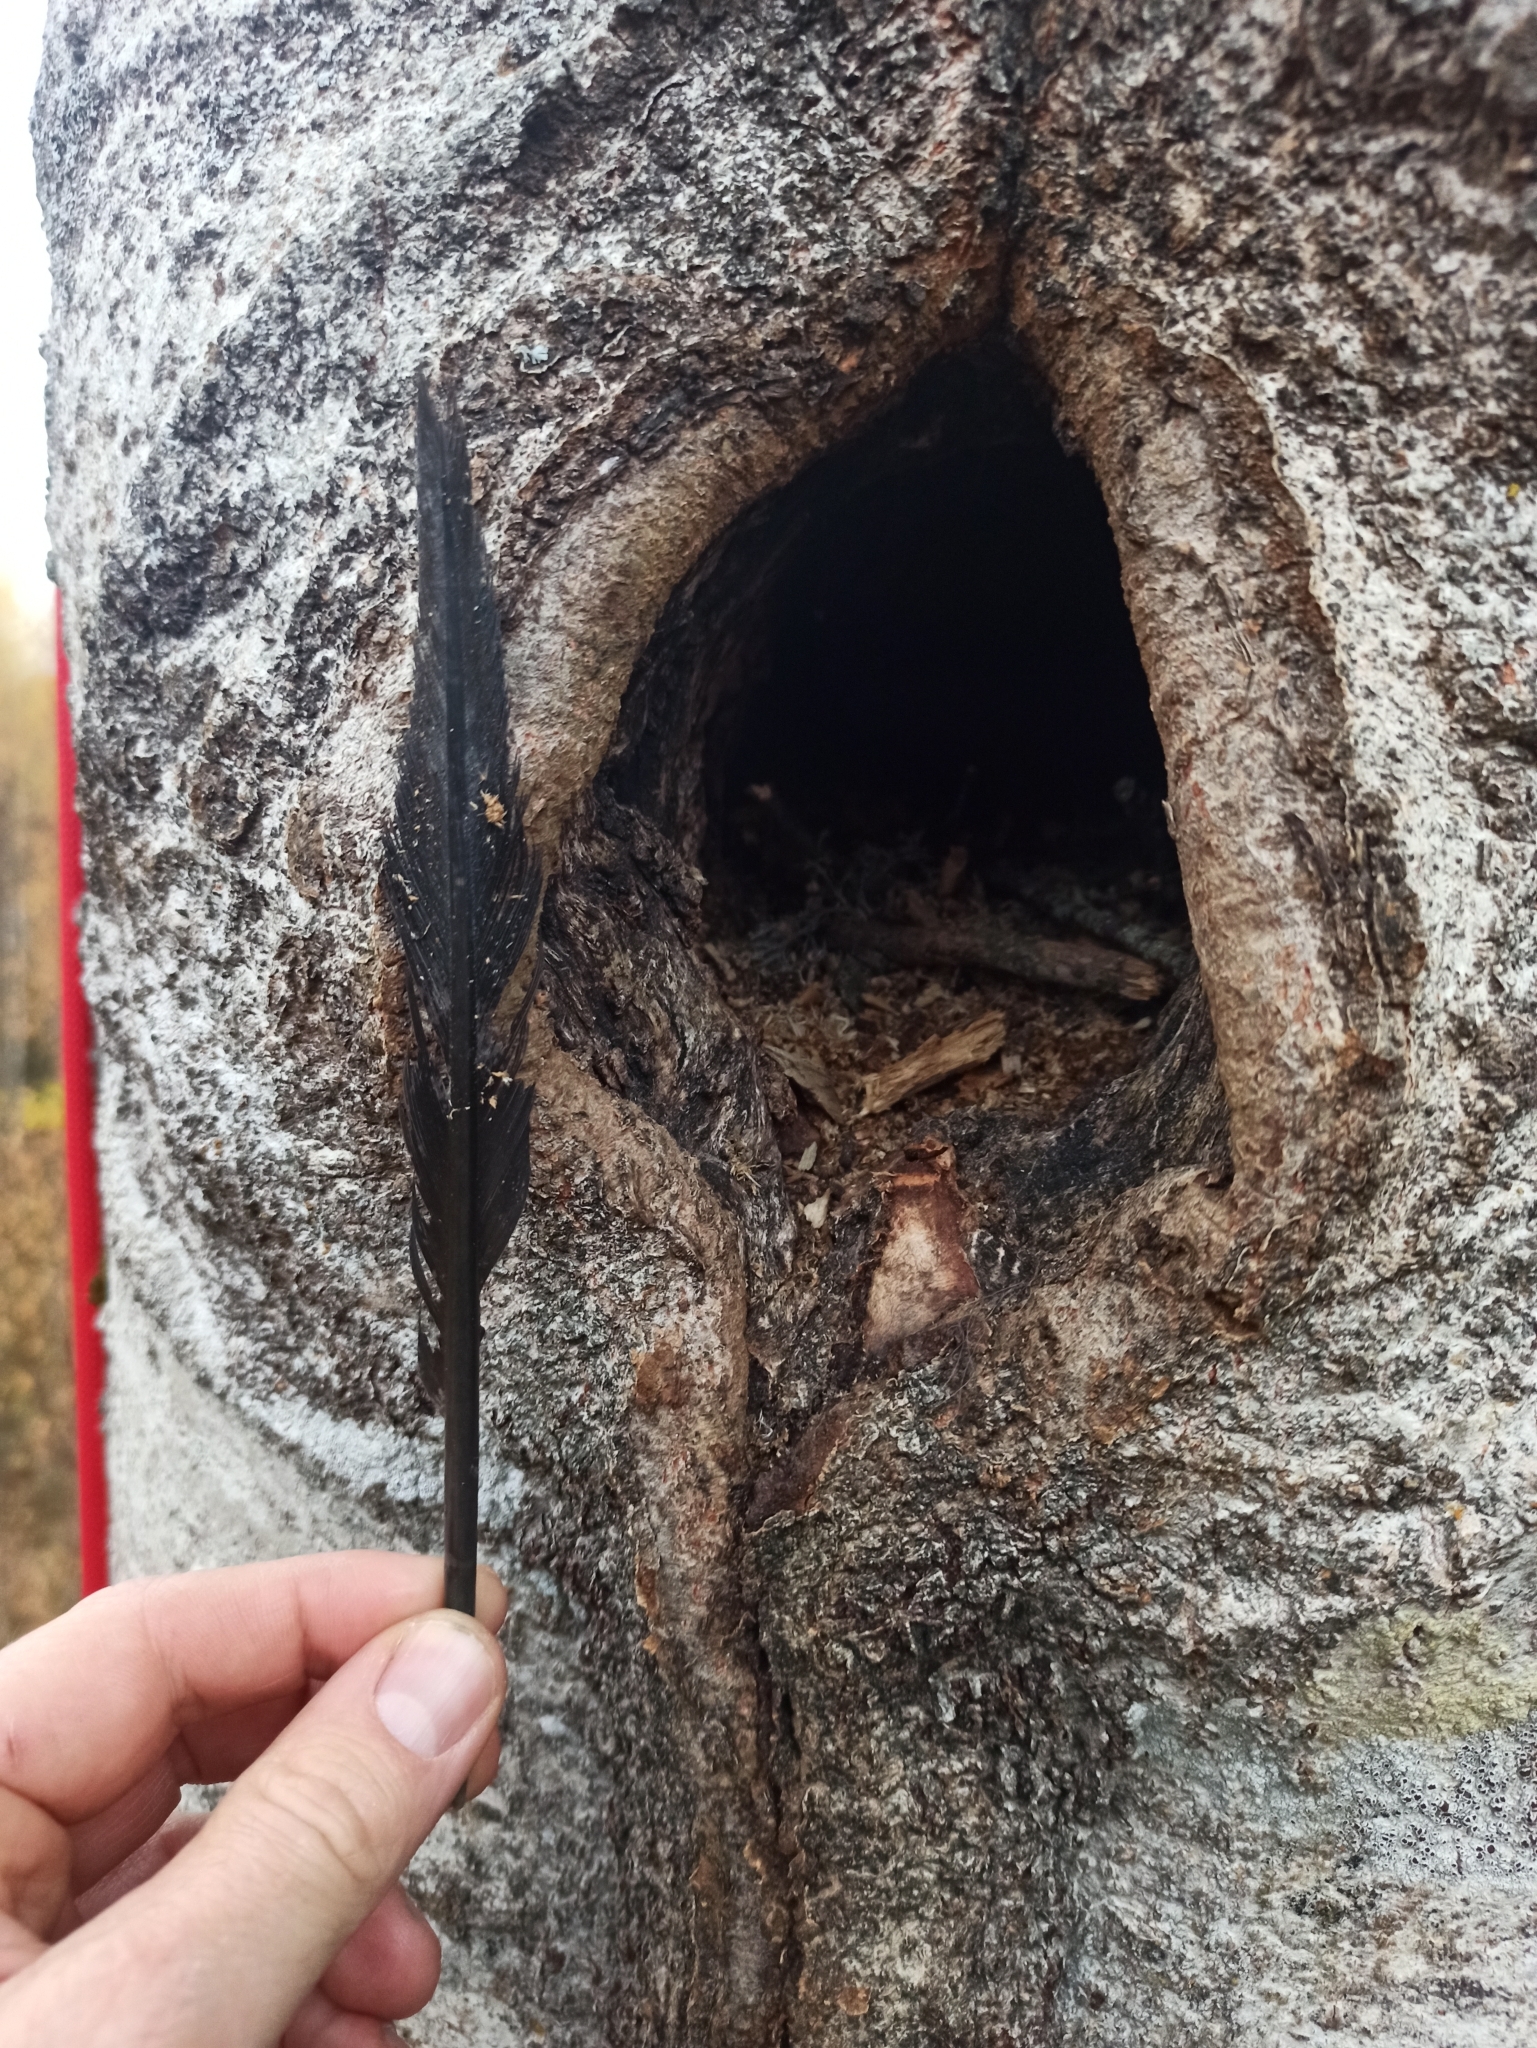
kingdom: Animalia
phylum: Chordata
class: Aves
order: Piciformes
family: Picidae
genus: Dryocopus
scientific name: Dryocopus martius
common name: Black woodpecker
